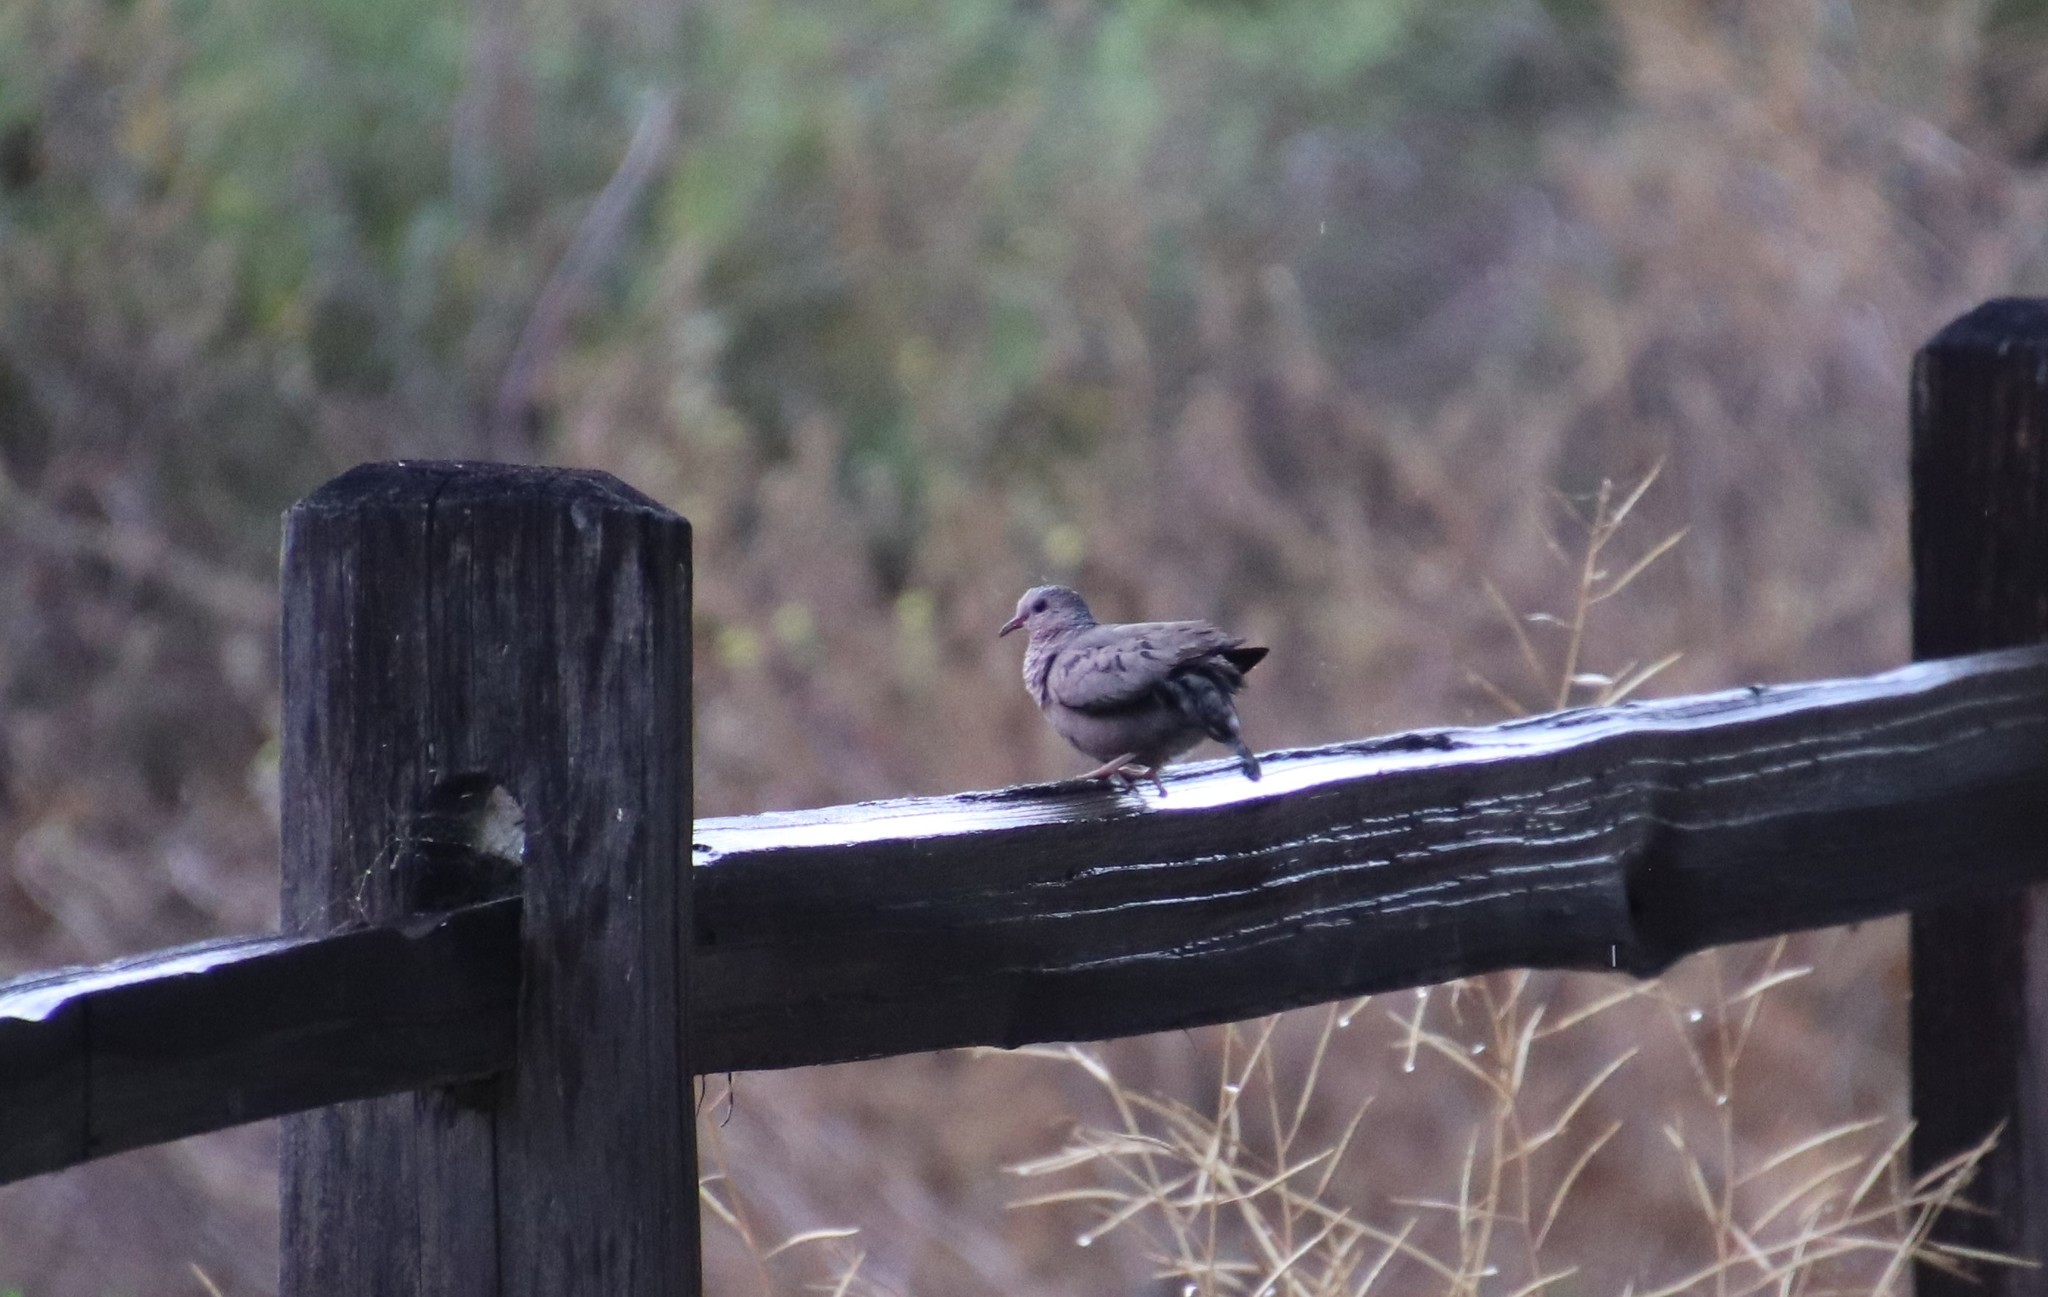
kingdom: Animalia
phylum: Chordata
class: Aves
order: Columbiformes
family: Columbidae
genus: Columbina
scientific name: Columbina passerina
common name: Common ground-dove
